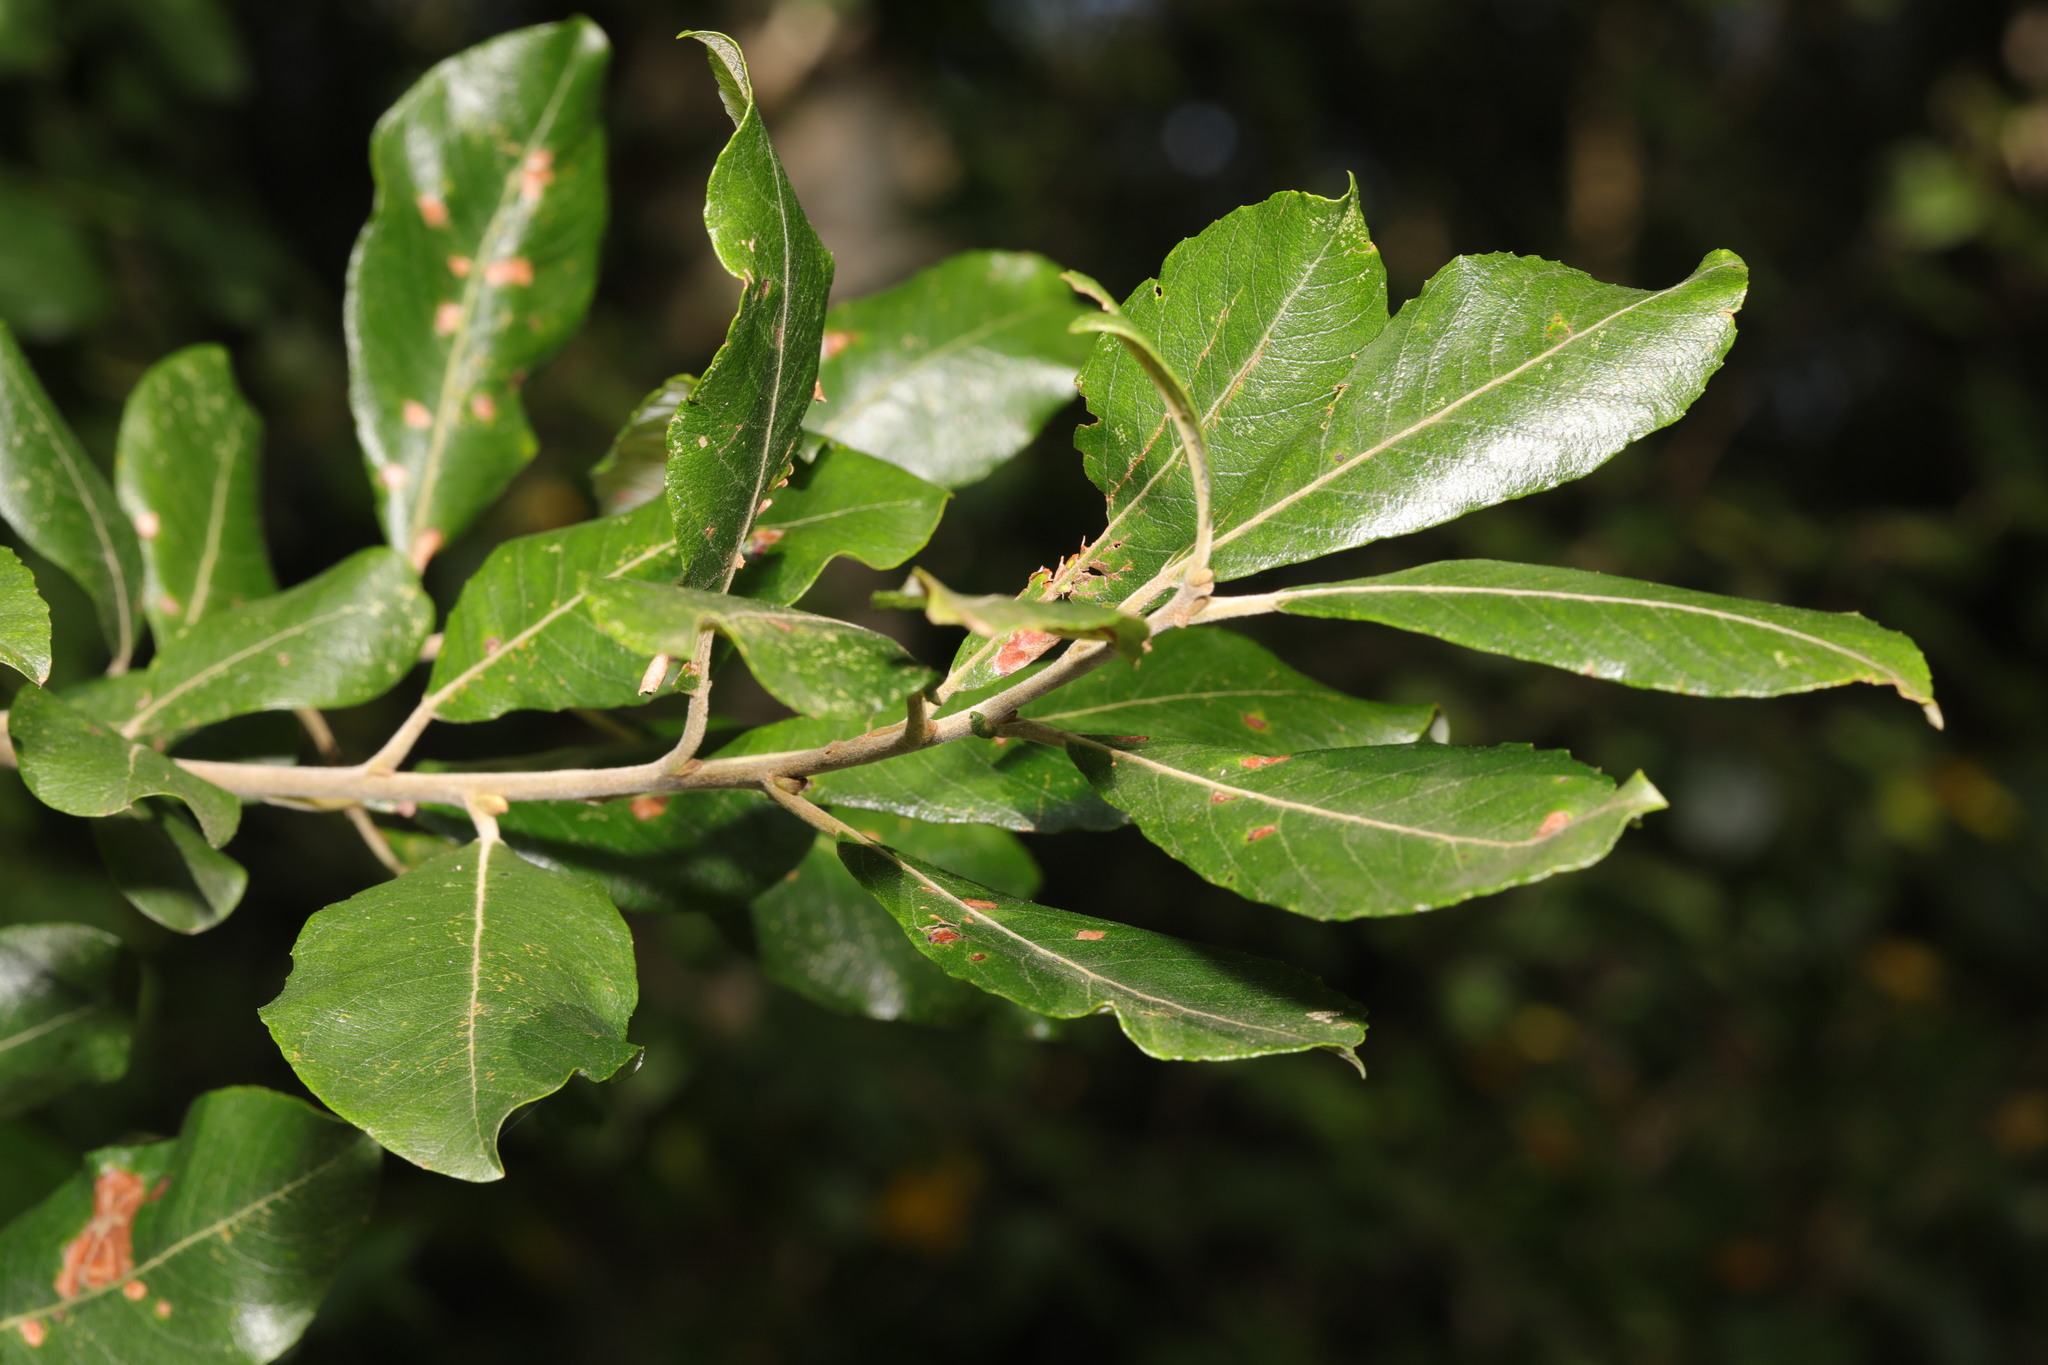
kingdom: Plantae
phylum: Tracheophyta
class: Magnoliopsida
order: Malpighiales
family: Salicaceae
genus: Salix
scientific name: Salix cinerea
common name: Common sallow
